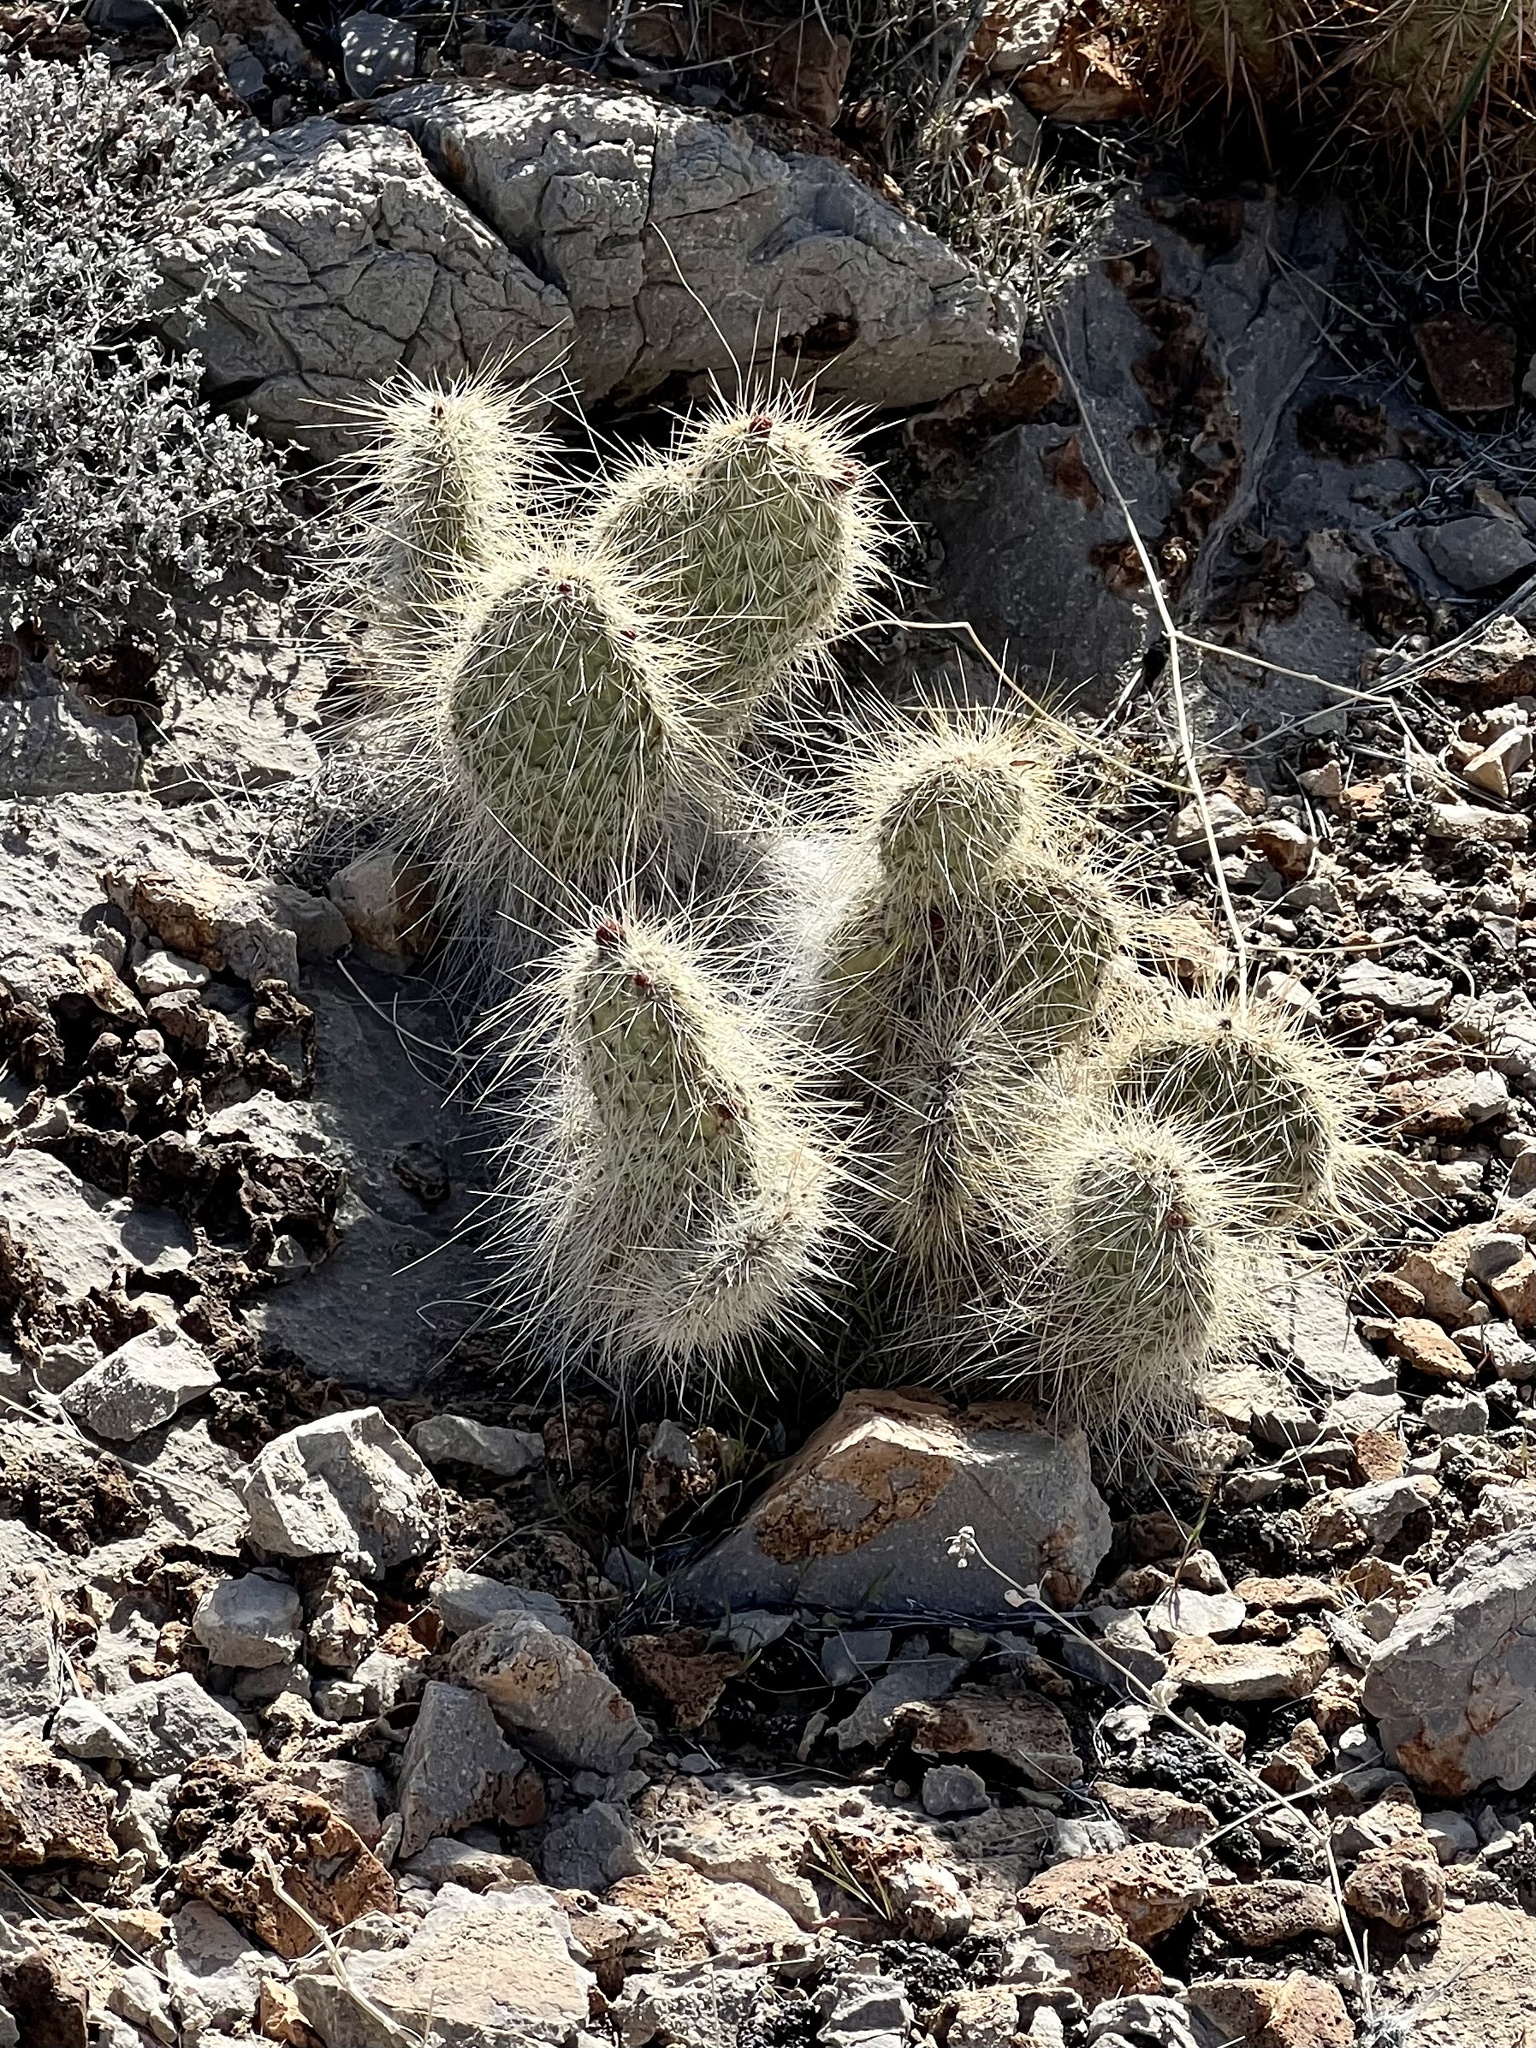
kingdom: Plantae
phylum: Tracheophyta
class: Magnoliopsida
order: Caryophyllales
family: Cactaceae
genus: Opuntia
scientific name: Opuntia polyacantha
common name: Plains prickly-pear
